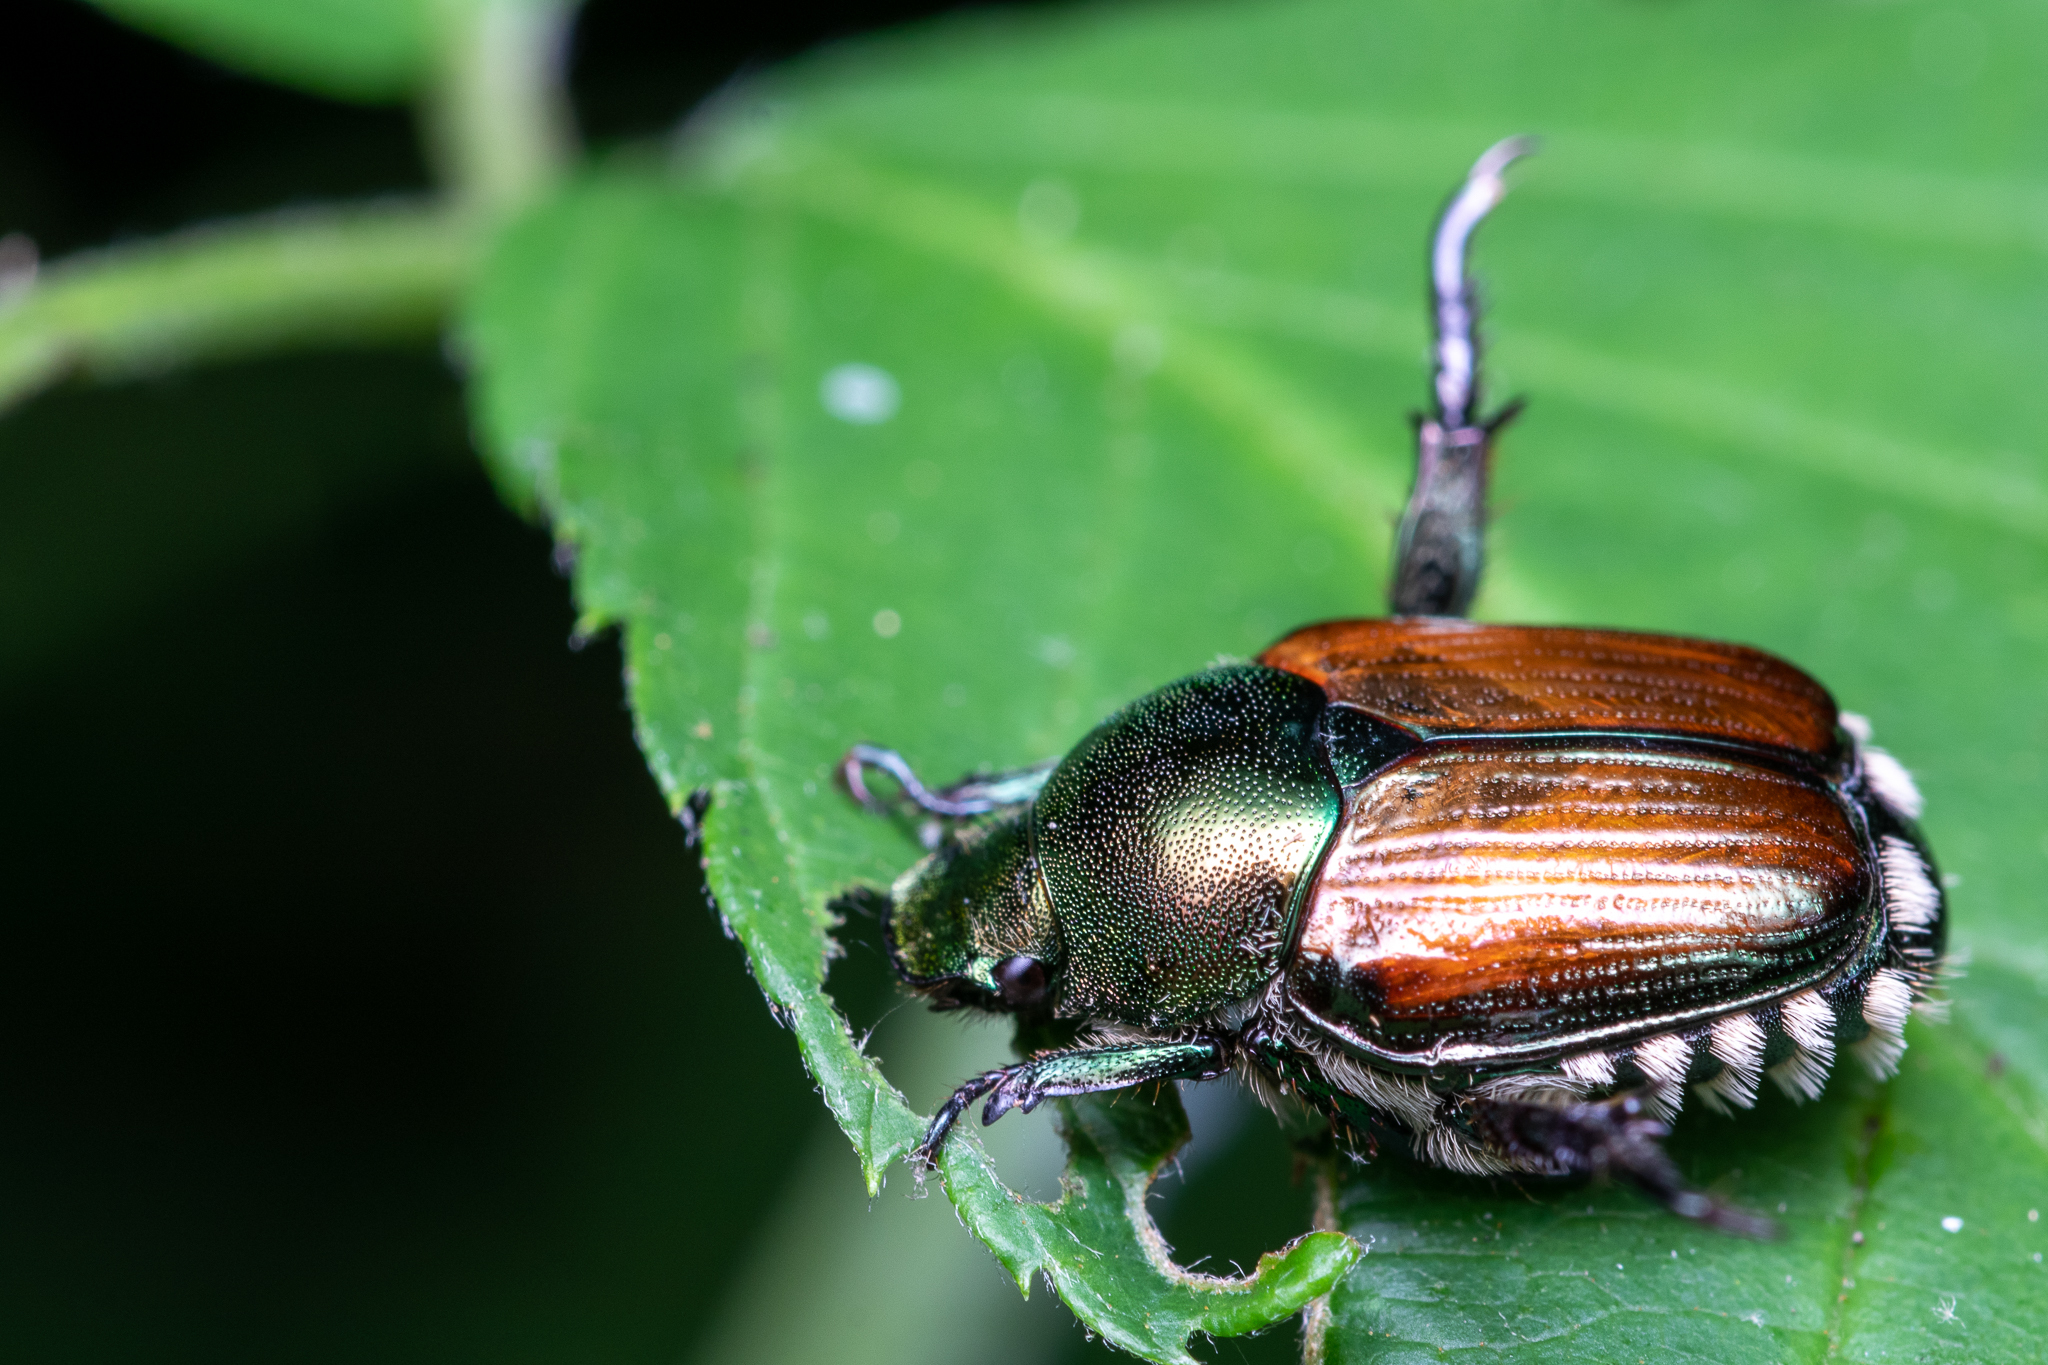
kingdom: Animalia
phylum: Arthropoda
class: Insecta
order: Coleoptera
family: Scarabaeidae
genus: Popillia
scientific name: Popillia japonica
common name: Japanese beetle
